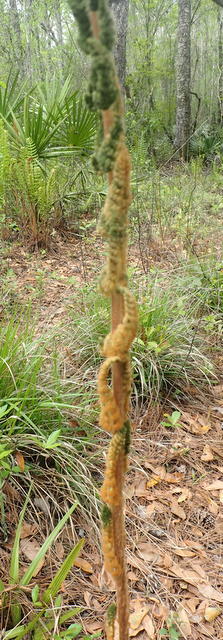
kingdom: Plantae
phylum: Tracheophyta
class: Polypodiopsida
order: Osmundales
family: Osmundaceae
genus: Osmundastrum
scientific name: Osmundastrum cinnamomeum
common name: Cinnamon fern
